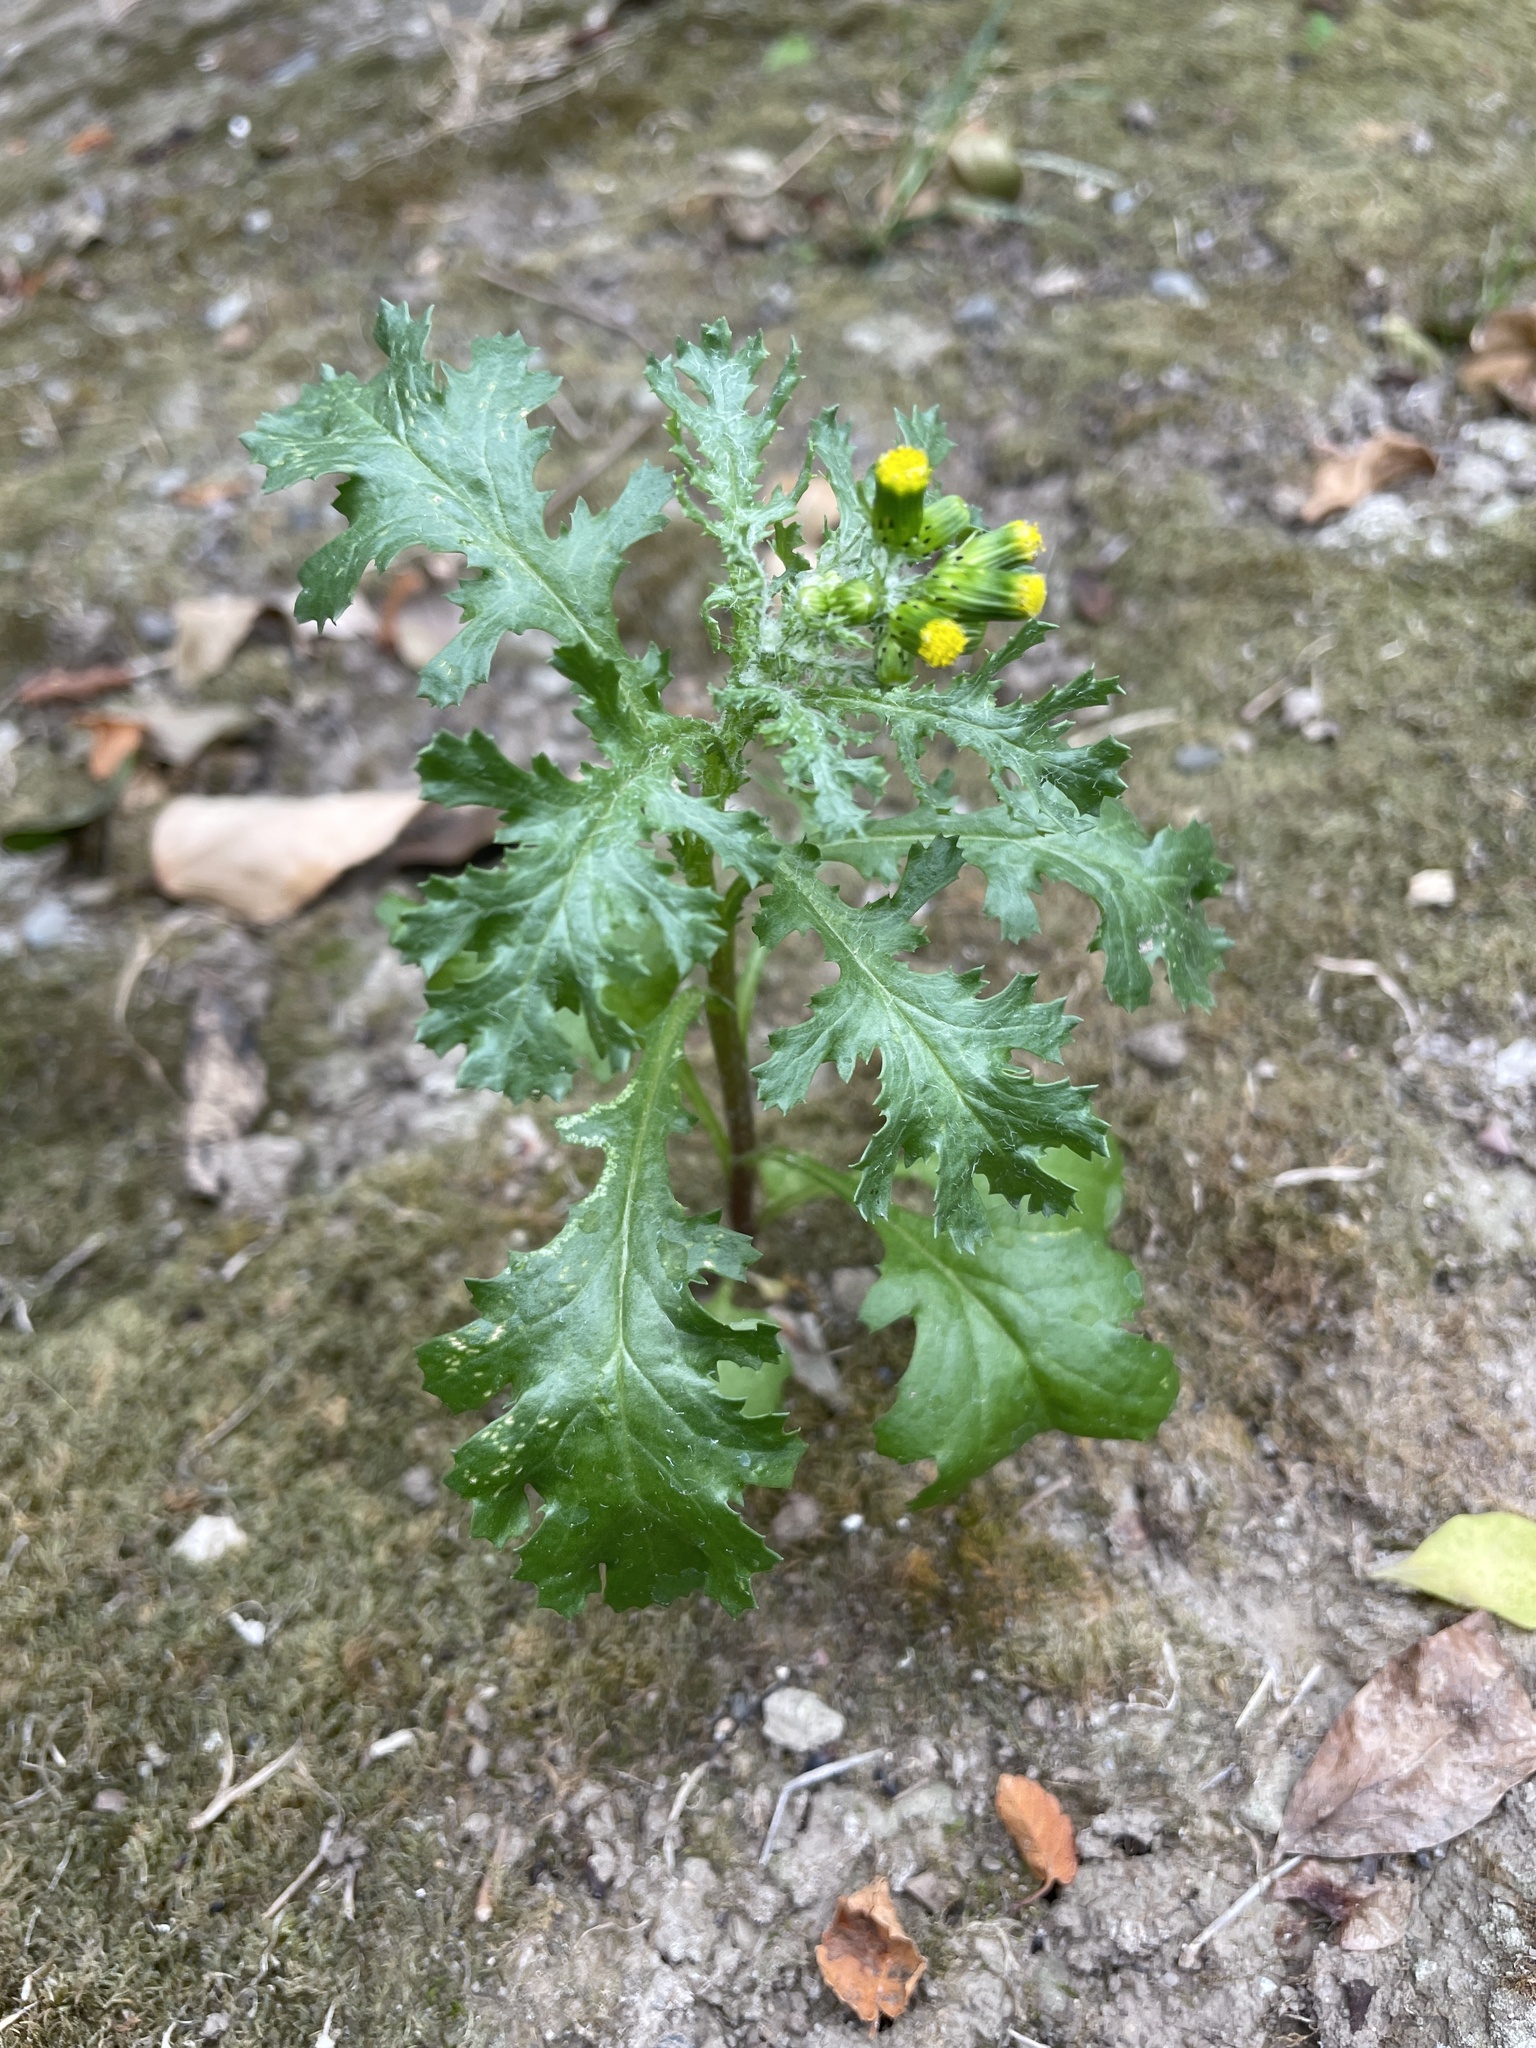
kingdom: Plantae
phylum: Tracheophyta
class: Magnoliopsida
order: Asterales
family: Asteraceae
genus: Senecio
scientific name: Senecio vulgaris
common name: Old-man-in-the-spring
